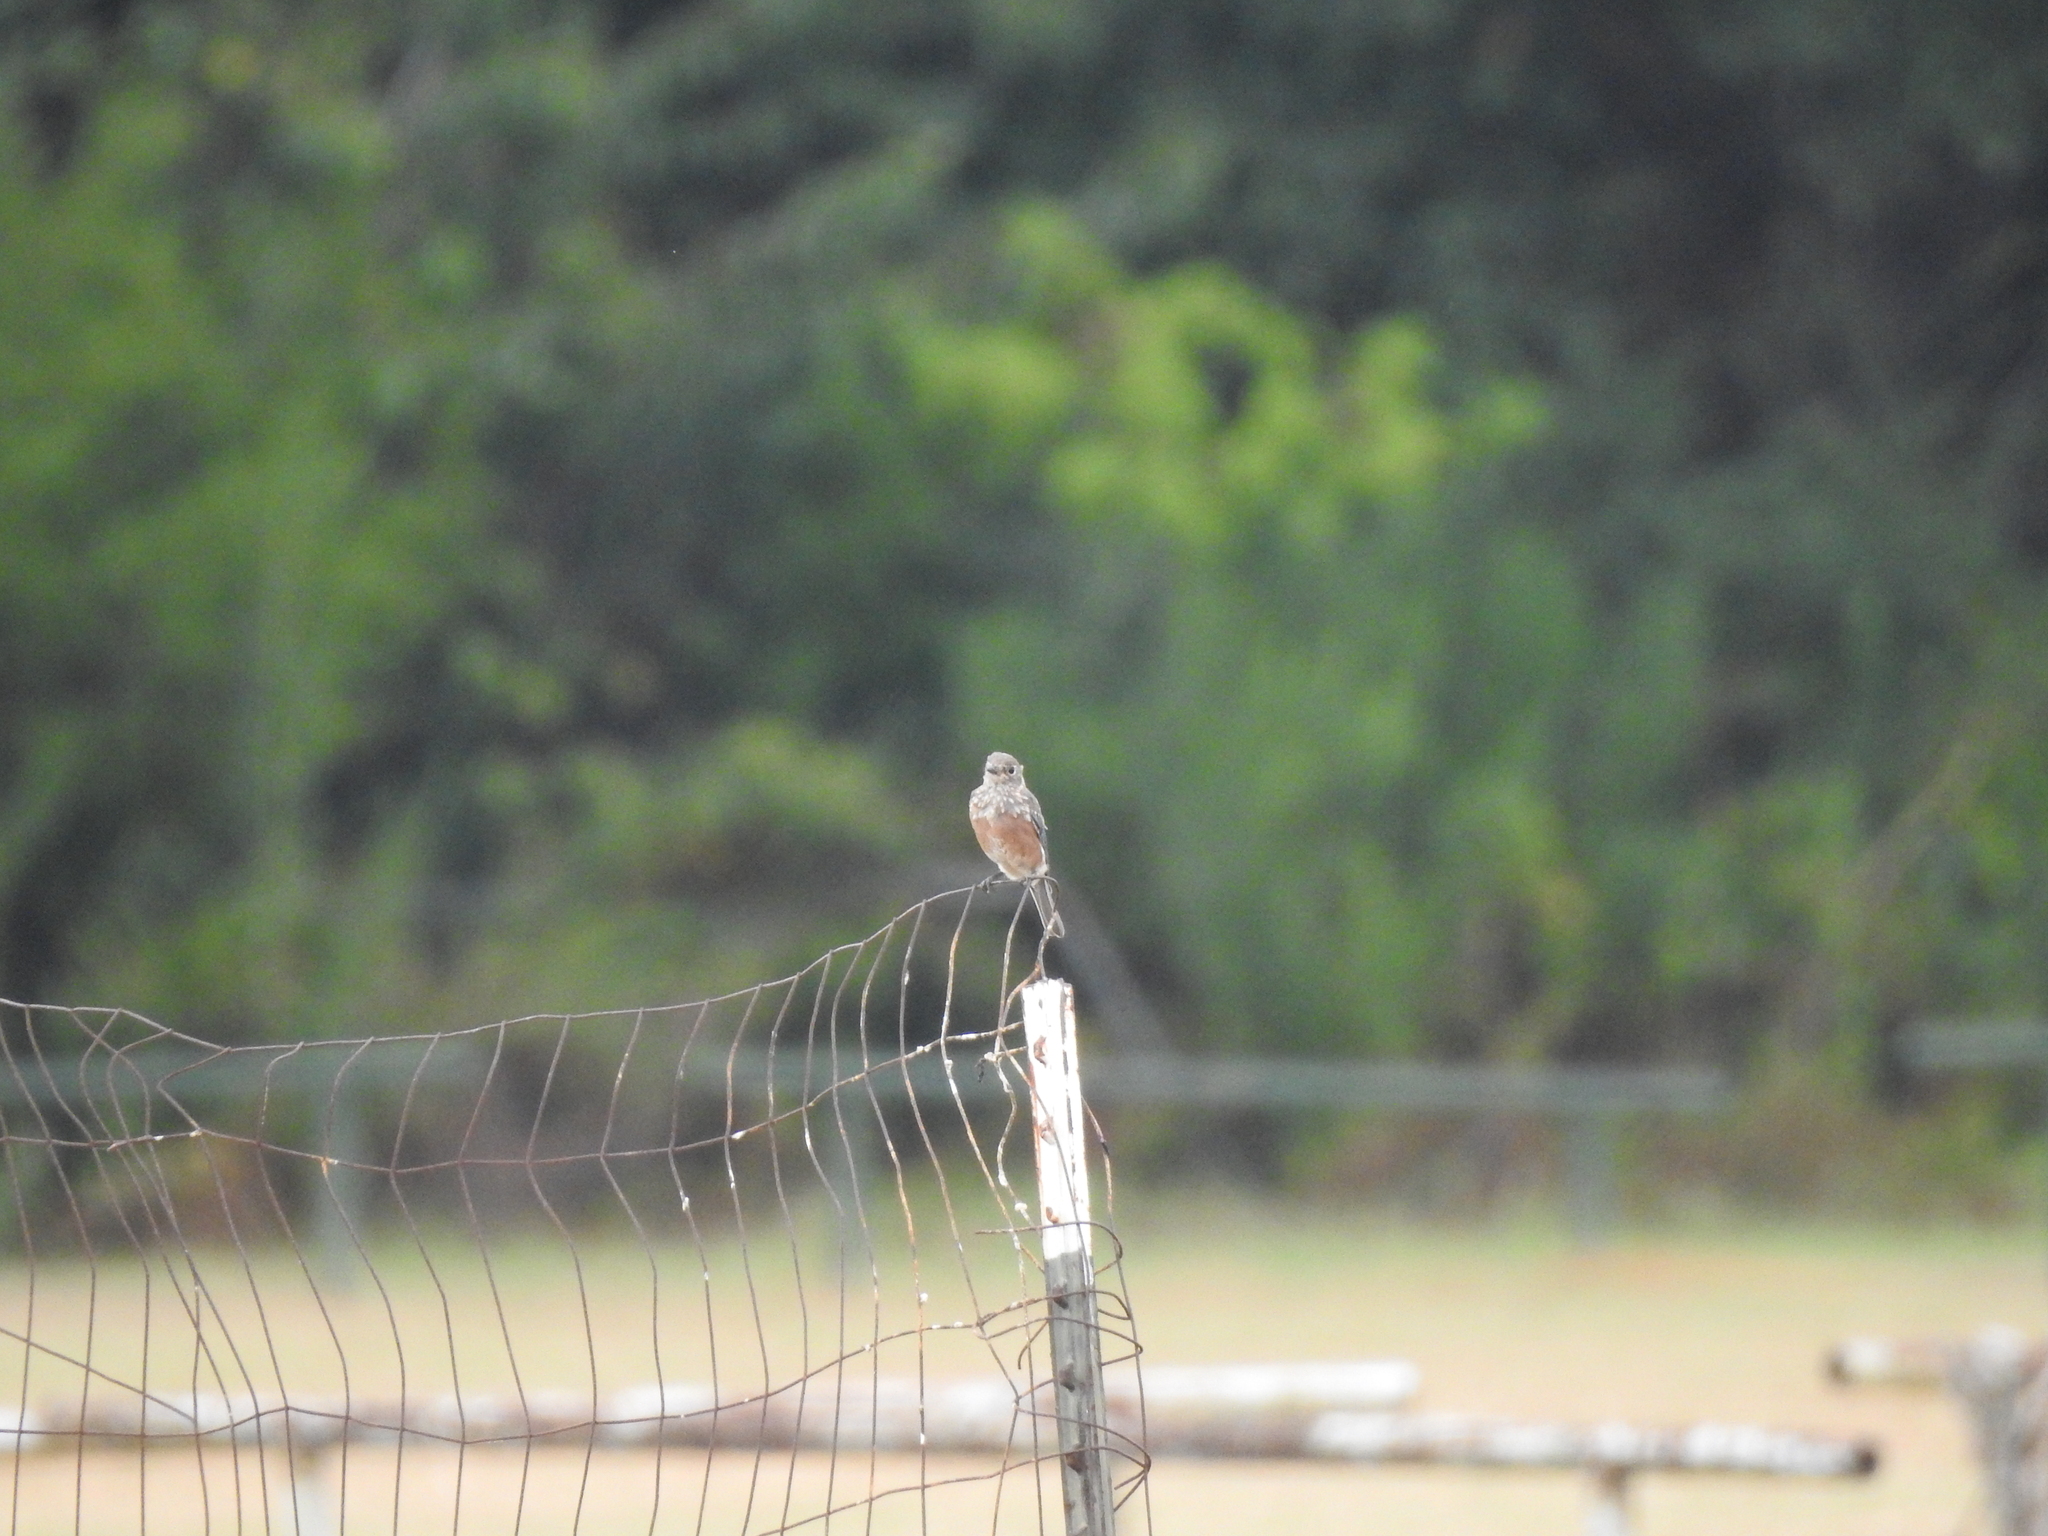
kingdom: Animalia
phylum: Chordata
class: Aves
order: Passeriformes
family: Turdidae
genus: Sialia
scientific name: Sialia sialis
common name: Eastern bluebird
